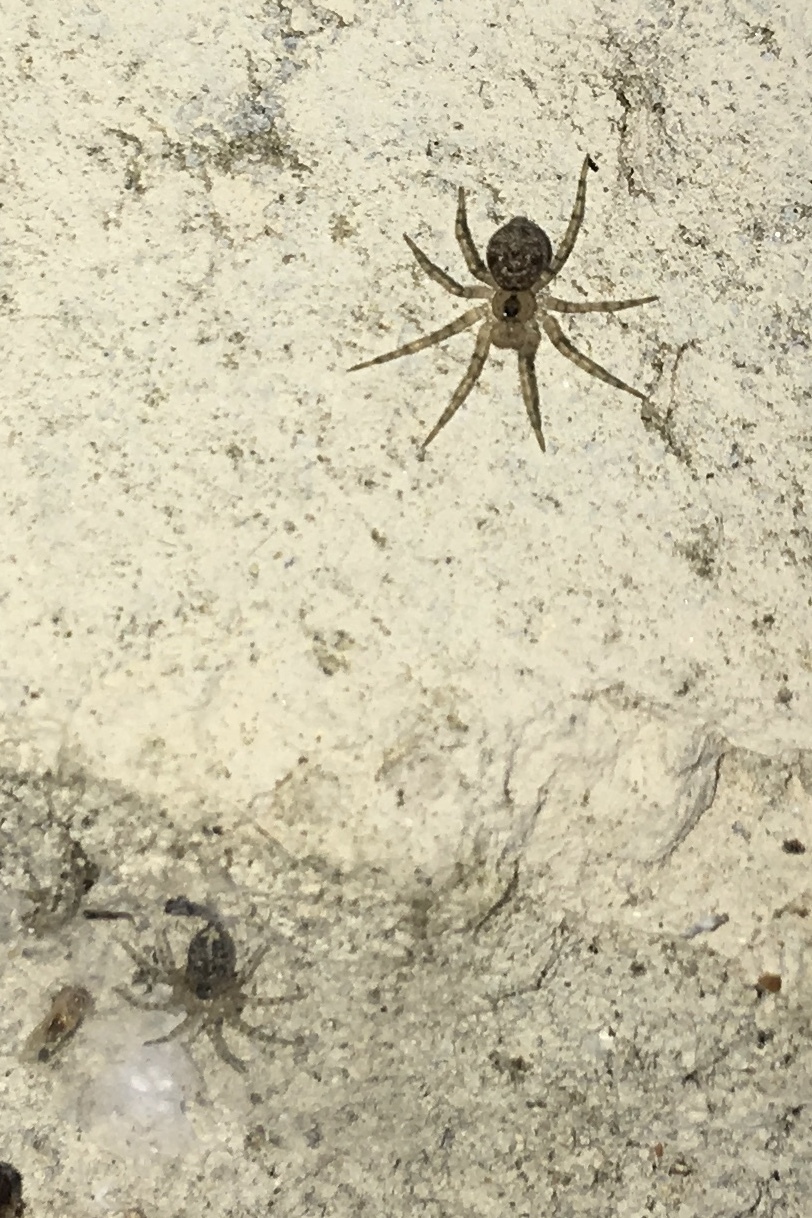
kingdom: Animalia
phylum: Arthropoda
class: Arachnida
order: Araneae
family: Oecobiidae
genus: Oecobius
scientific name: Oecobius navus
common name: Flatmesh weaver
